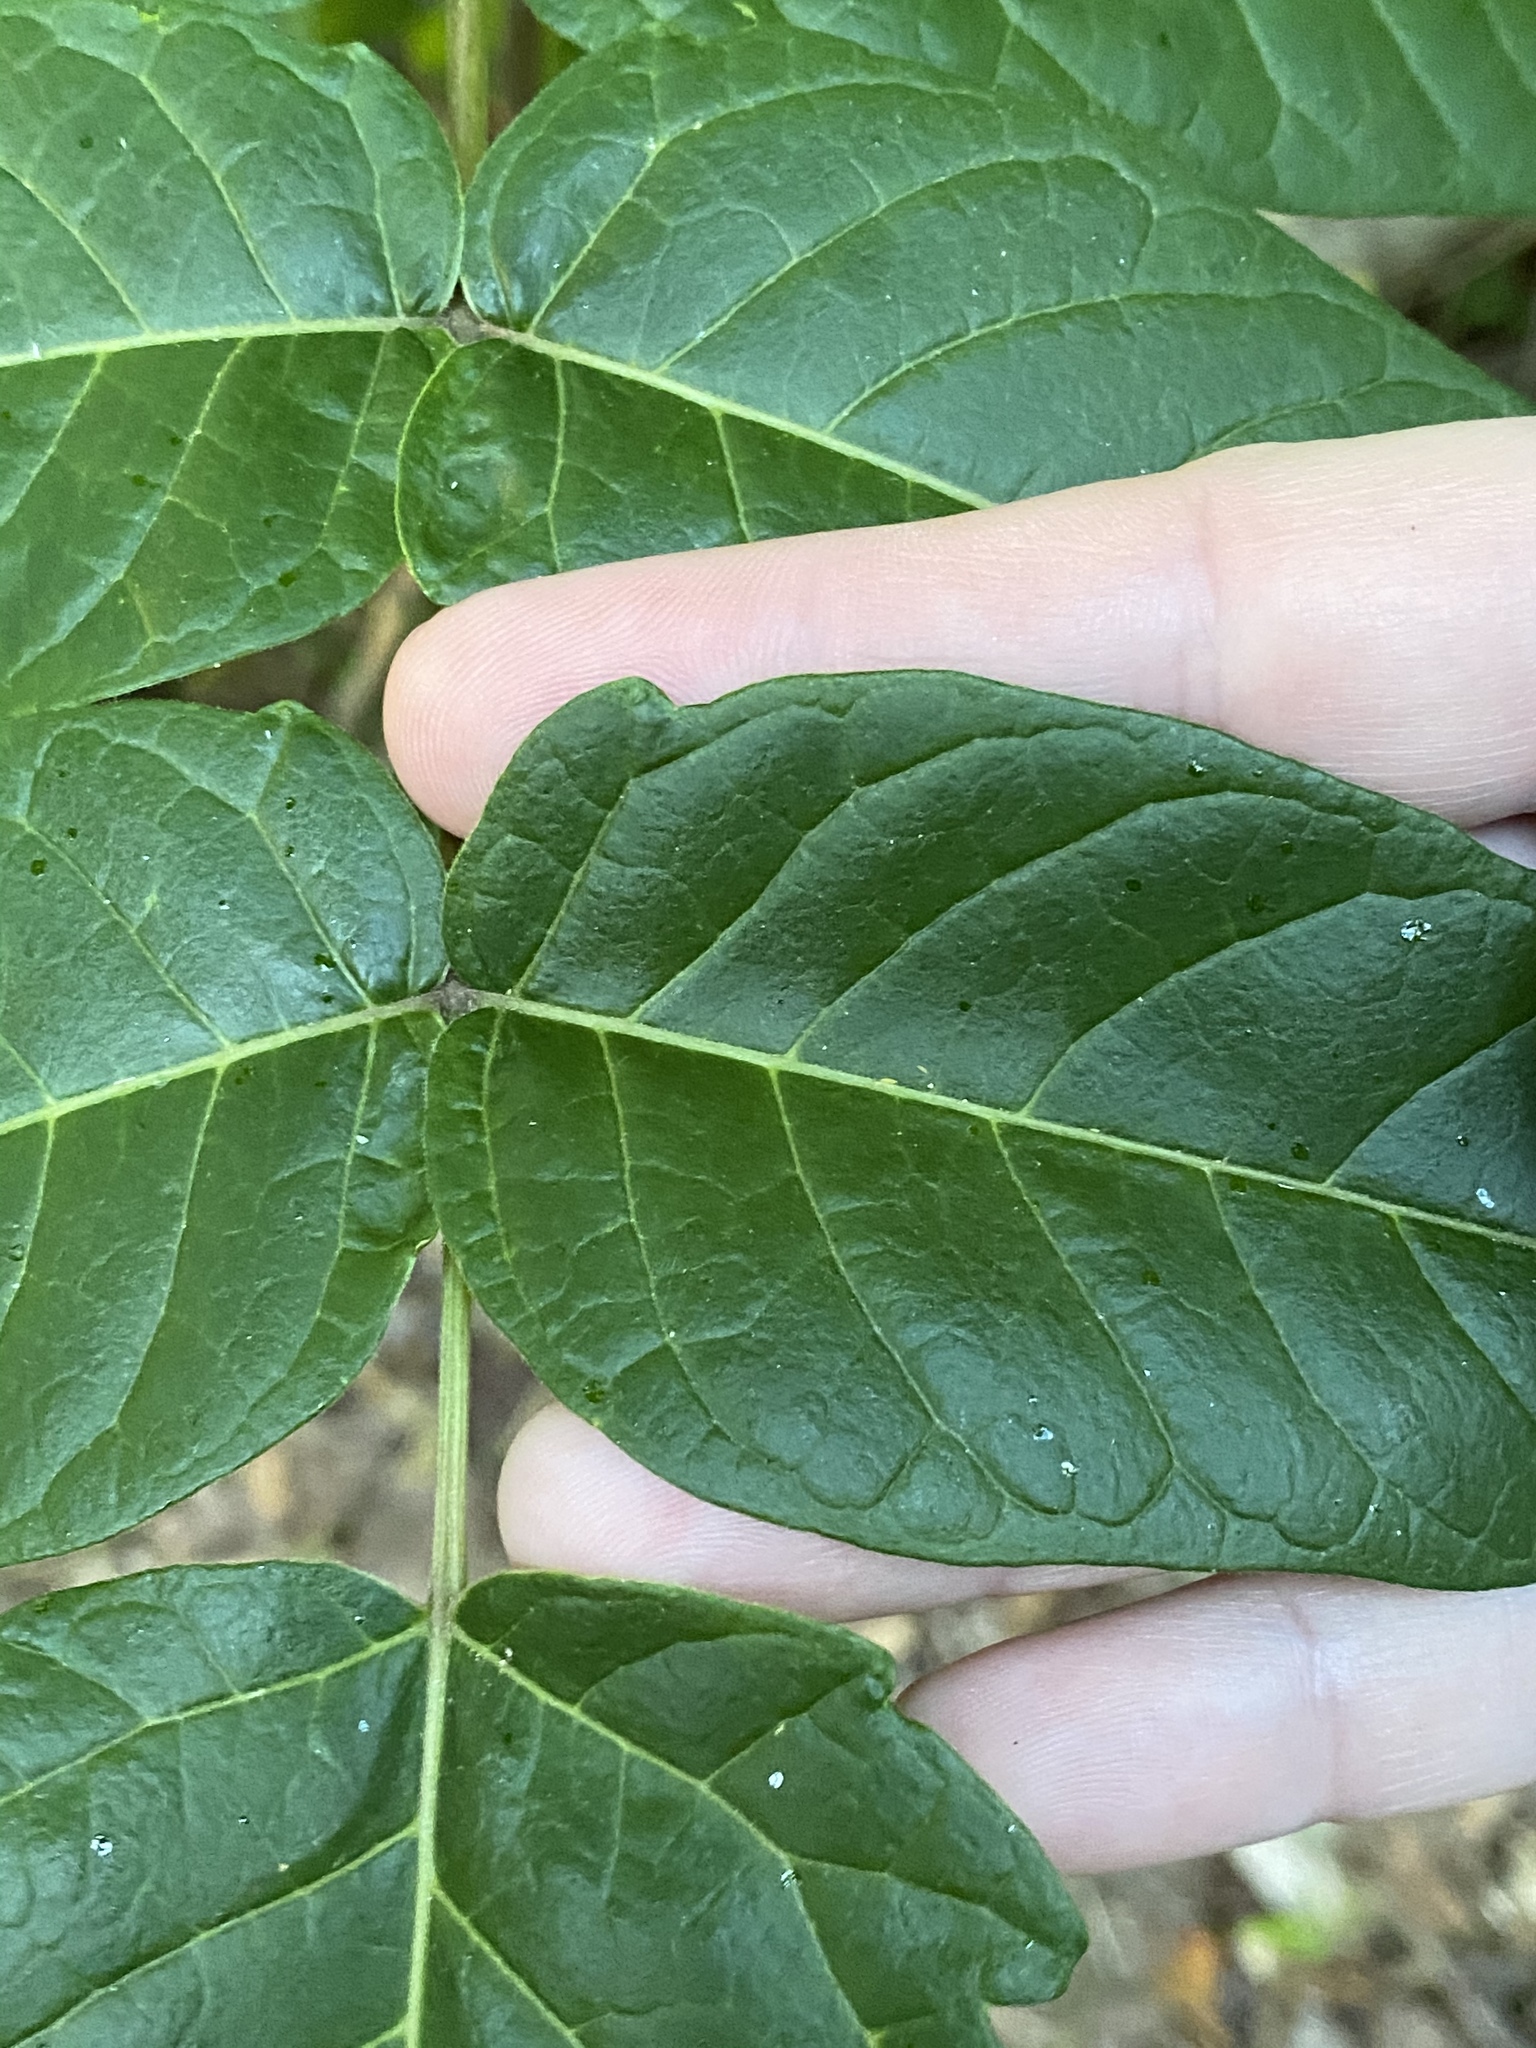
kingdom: Plantae
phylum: Tracheophyta
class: Magnoliopsida
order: Sapindales
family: Simaroubaceae
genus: Ailanthus
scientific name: Ailanthus altissima
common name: Tree-of-heaven
